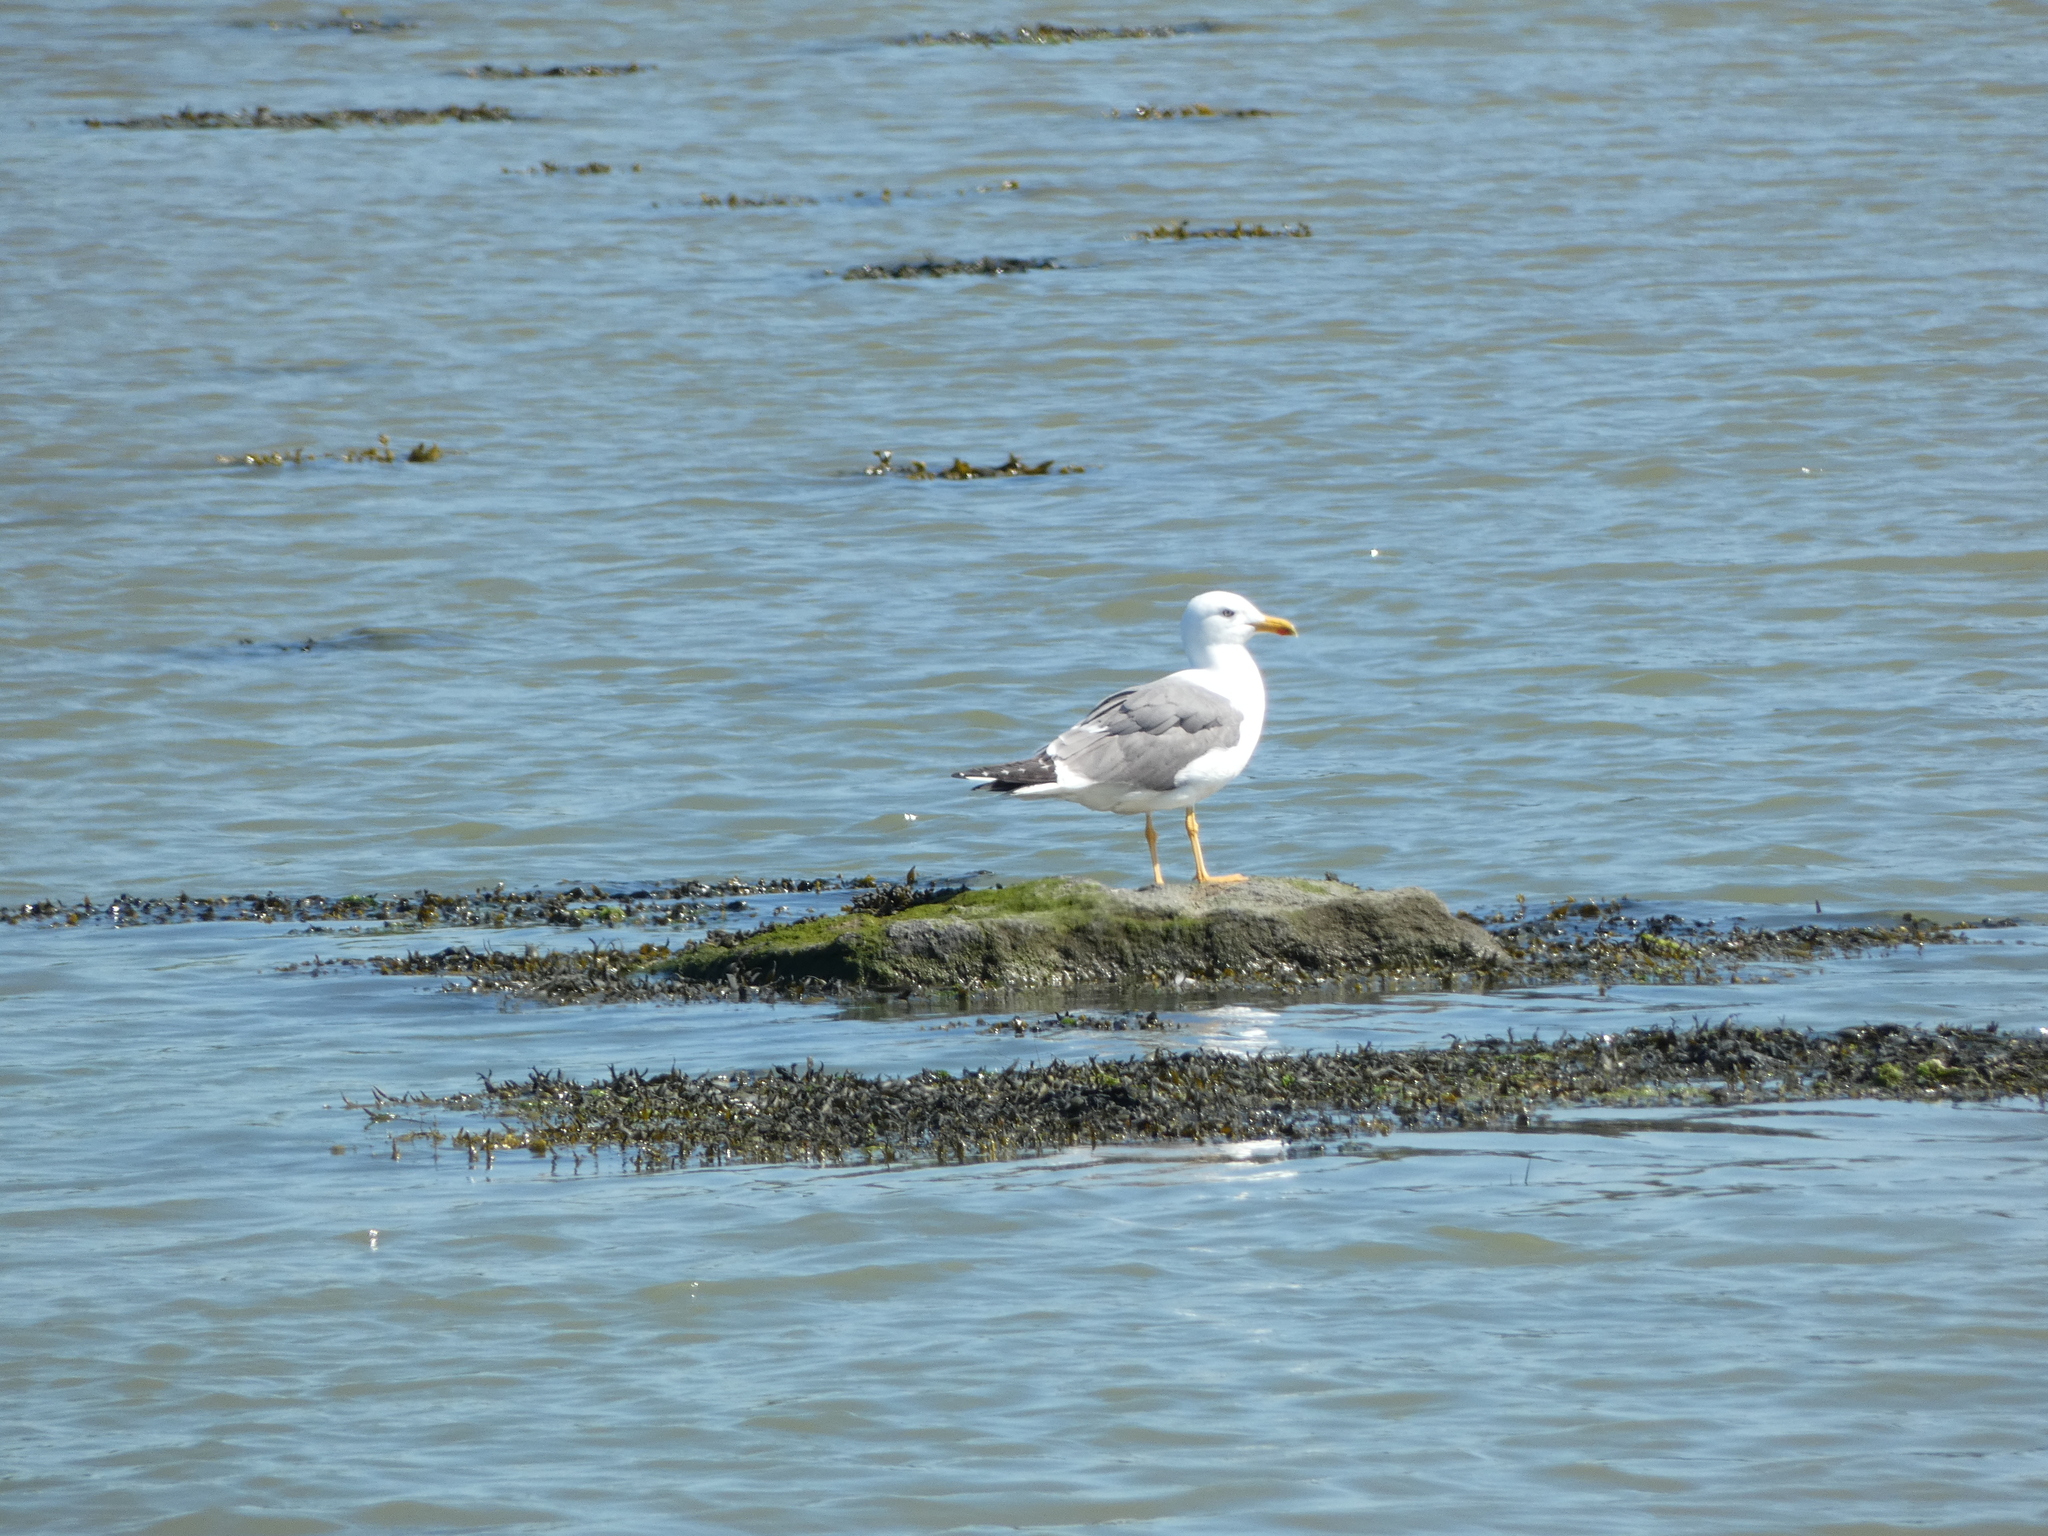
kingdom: Animalia
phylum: Chordata
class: Aves
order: Charadriiformes
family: Laridae
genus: Larus
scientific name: Larus michahellis
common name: Yellow-legged gull
